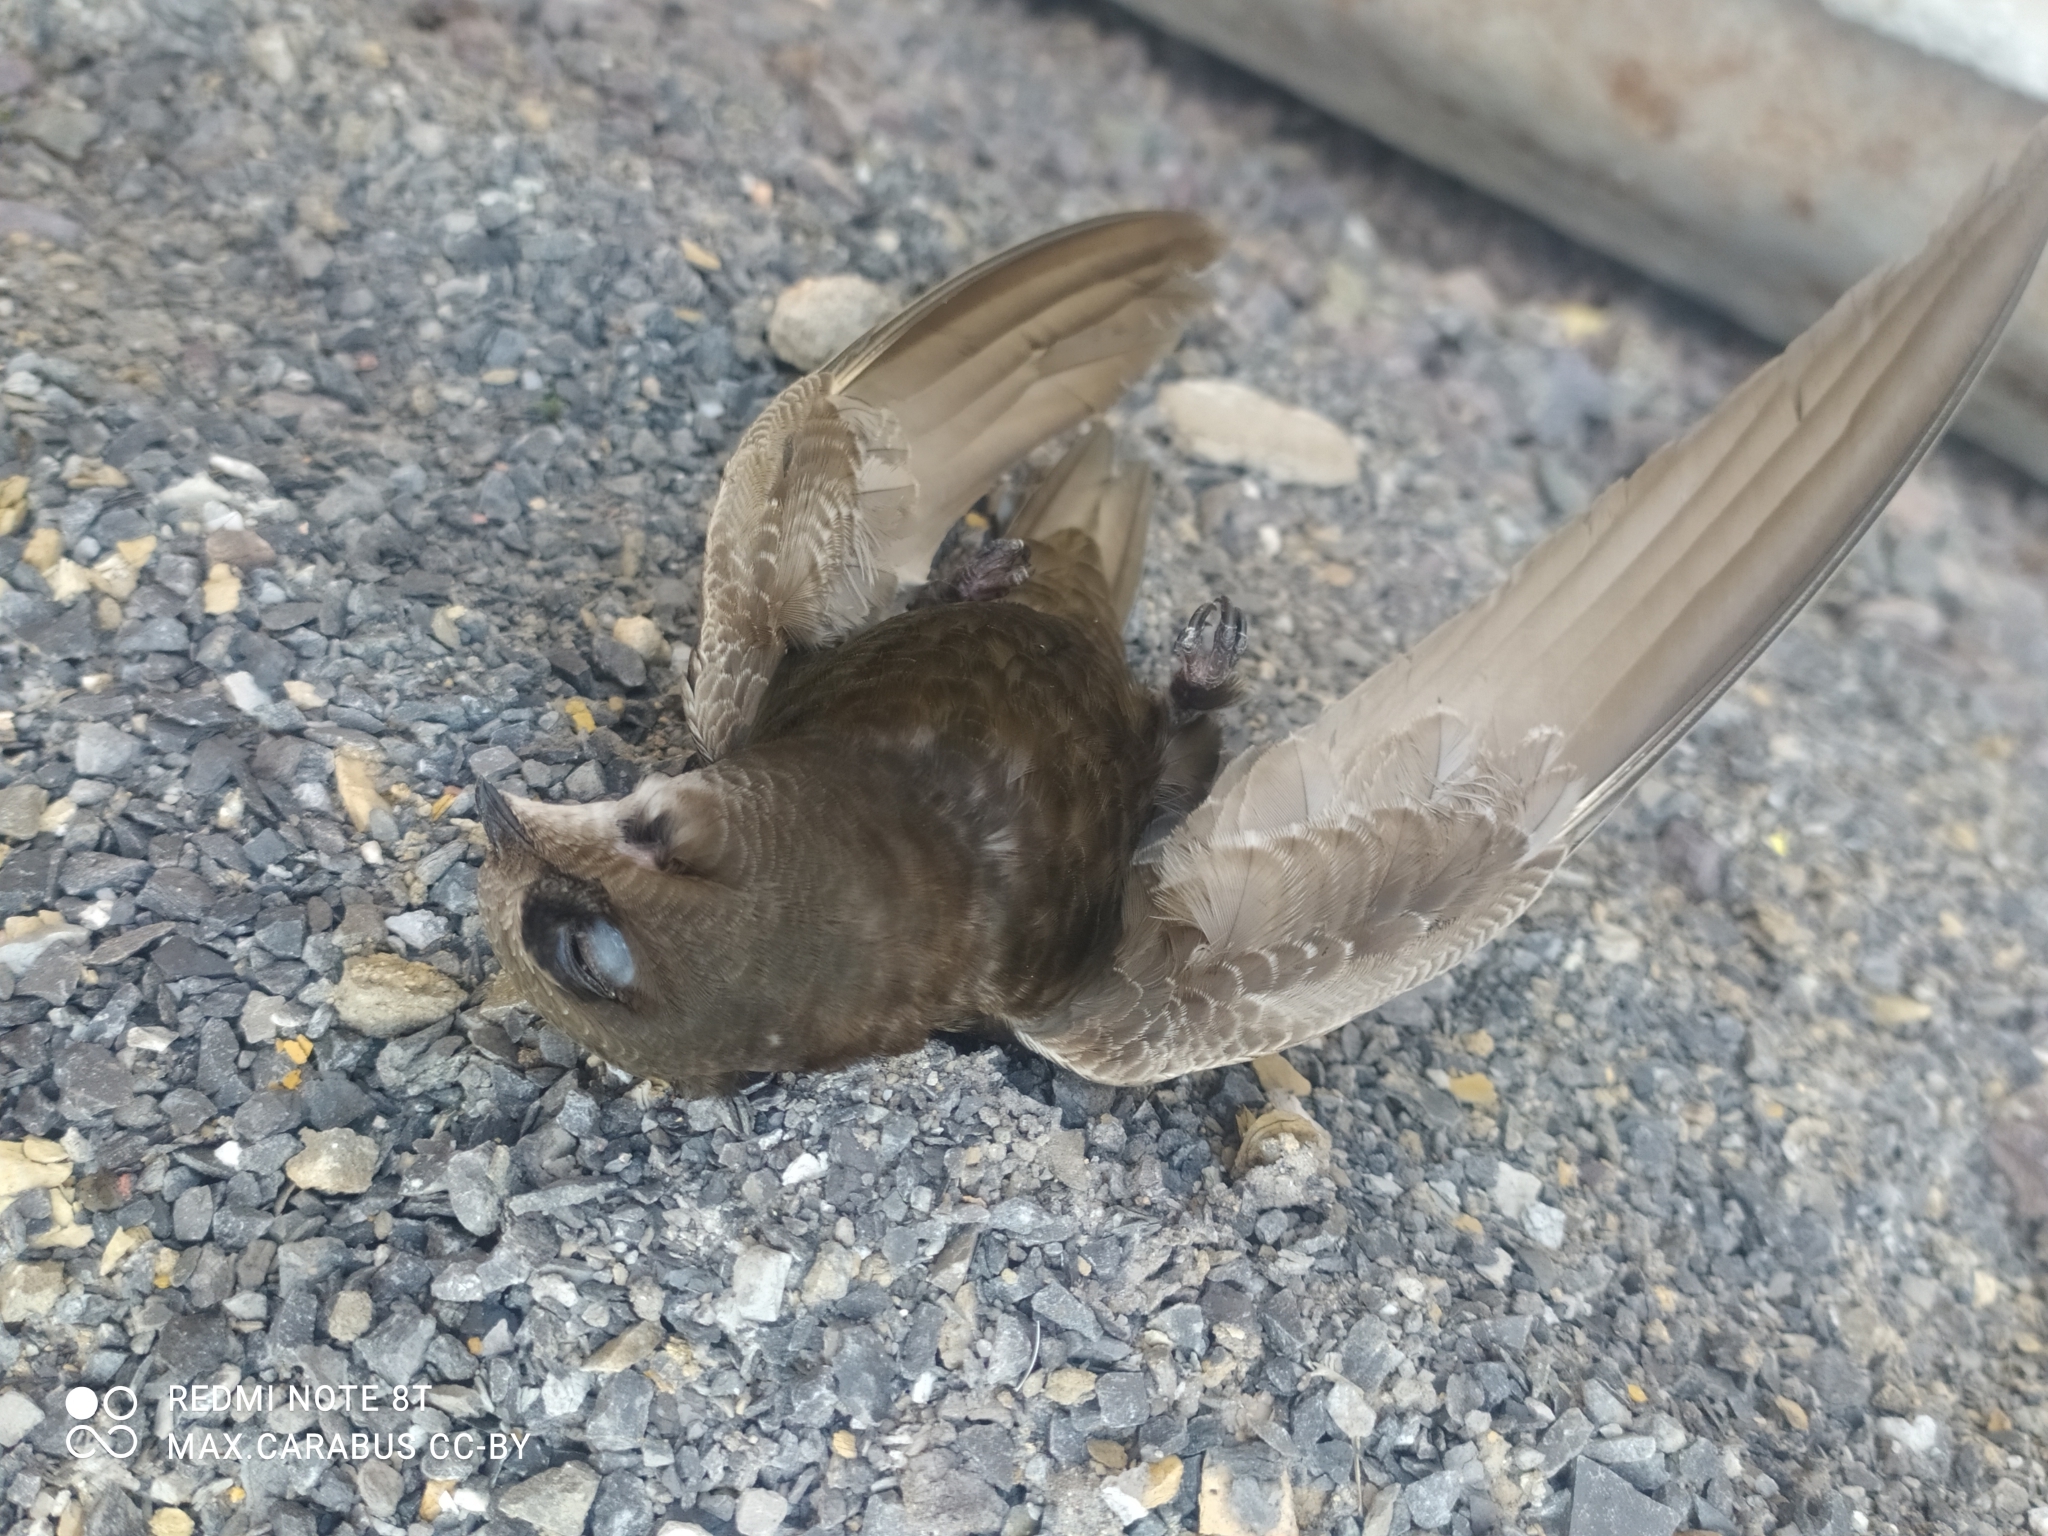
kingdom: Animalia
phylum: Chordata
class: Aves
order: Apodiformes
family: Apodidae
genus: Apus
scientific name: Apus apus
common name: Common swift
